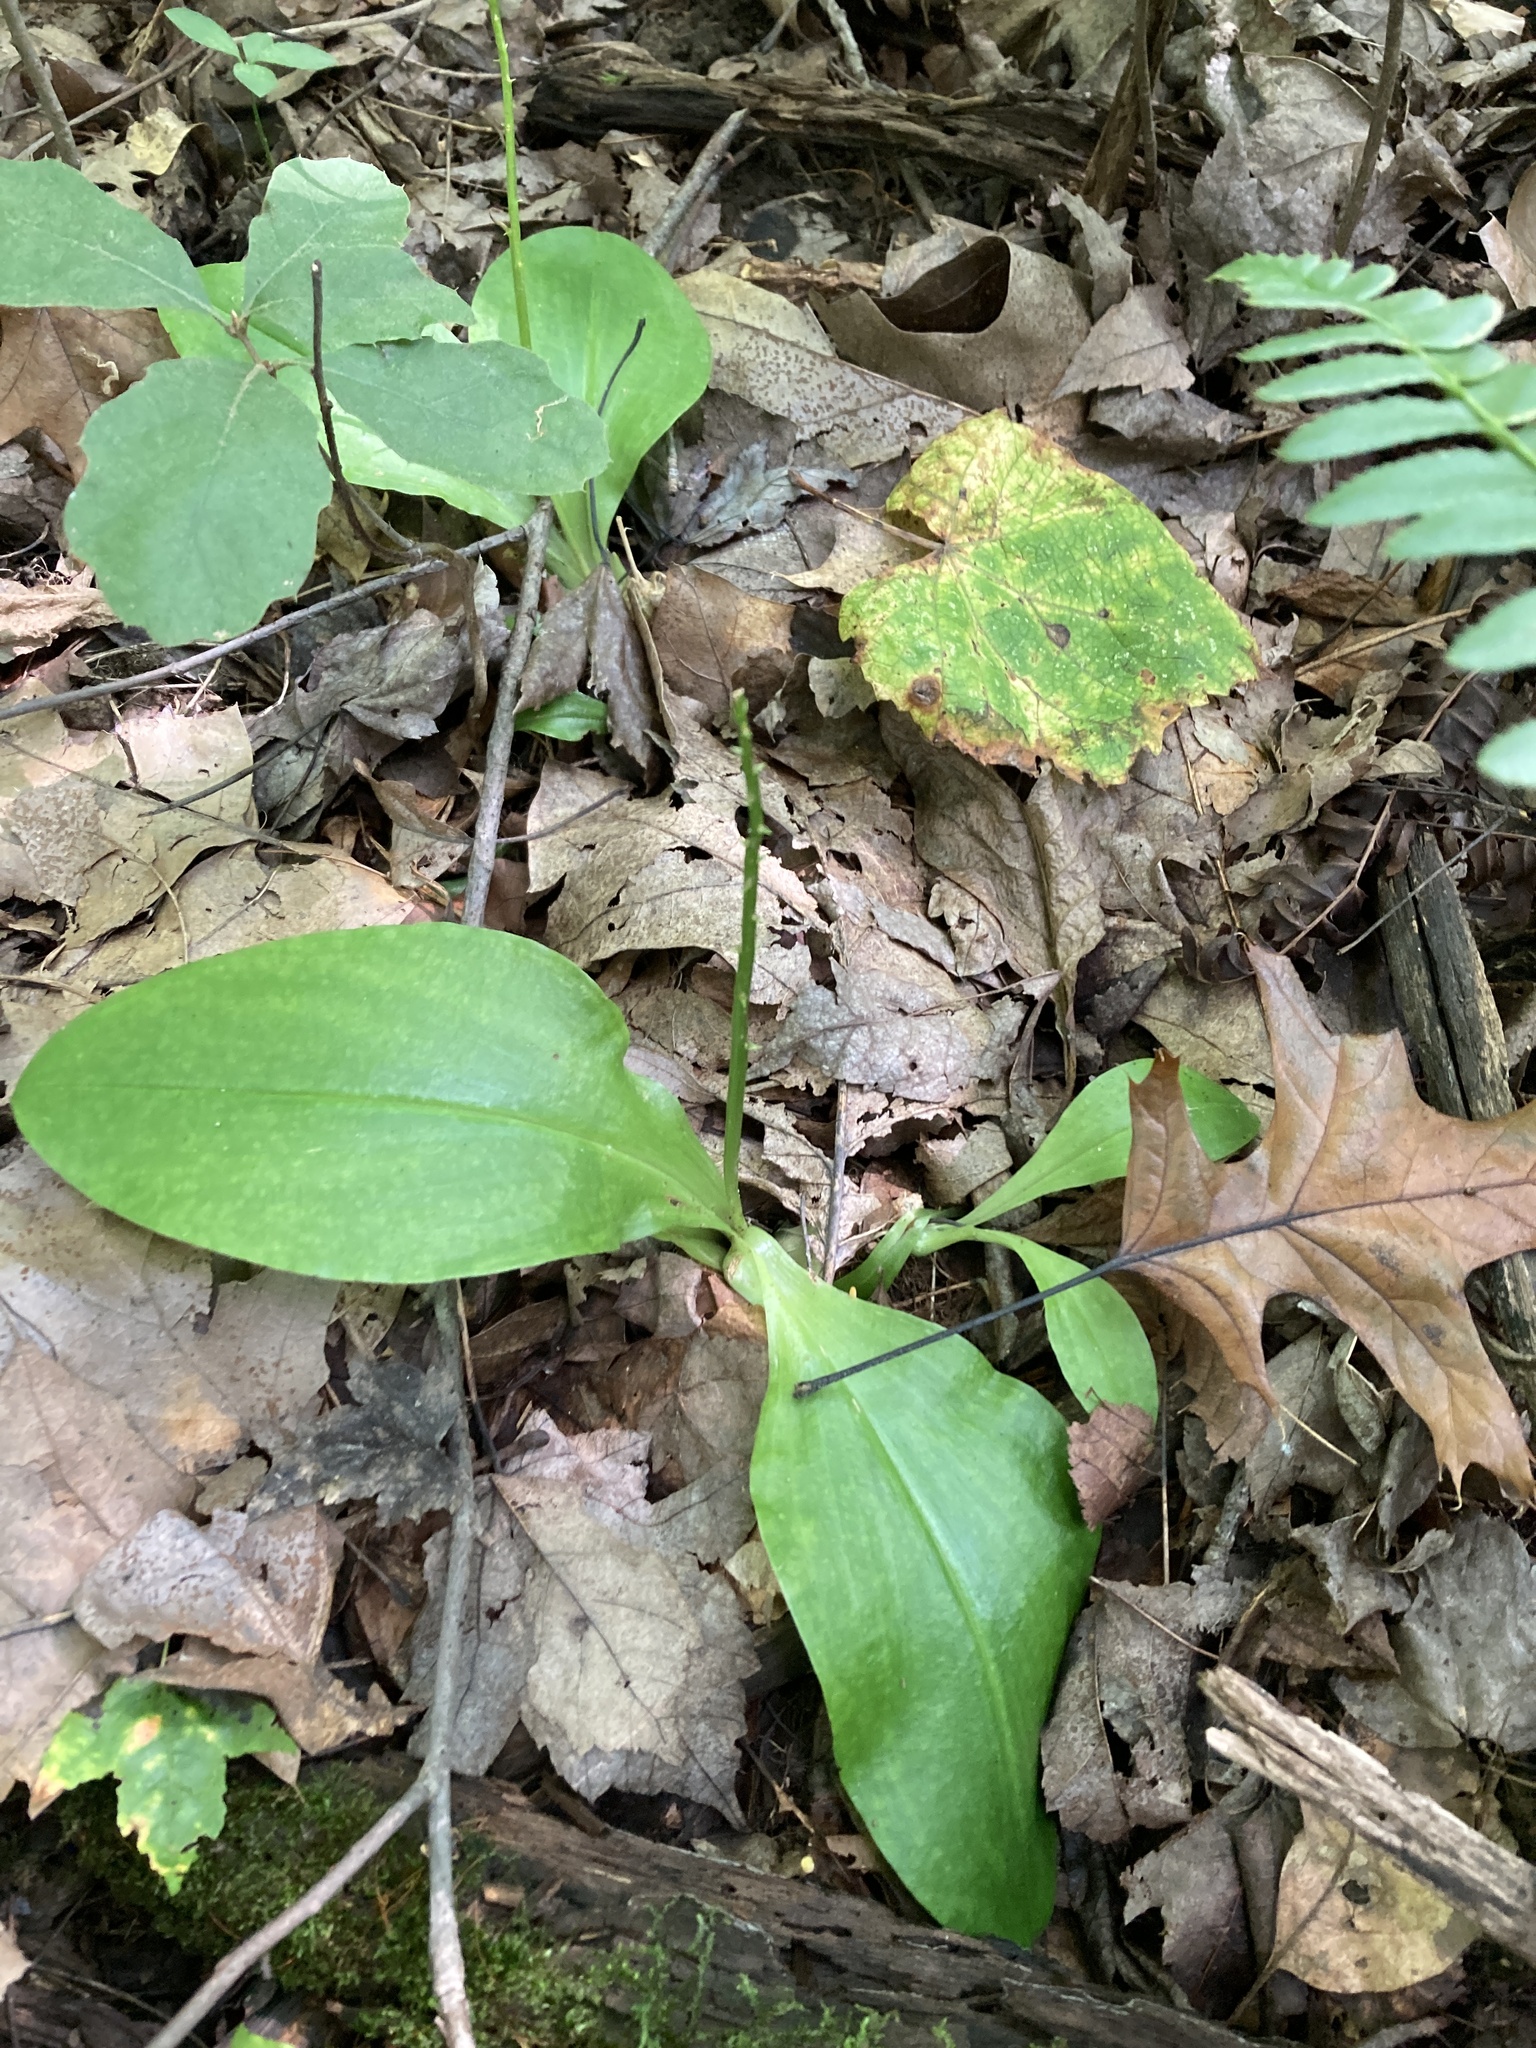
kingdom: Plantae
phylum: Tracheophyta
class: Liliopsida
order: Asparagales
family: Orchidaceae
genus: Liparis
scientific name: Liparis liliifolia
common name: Brown wide-lip orchid
